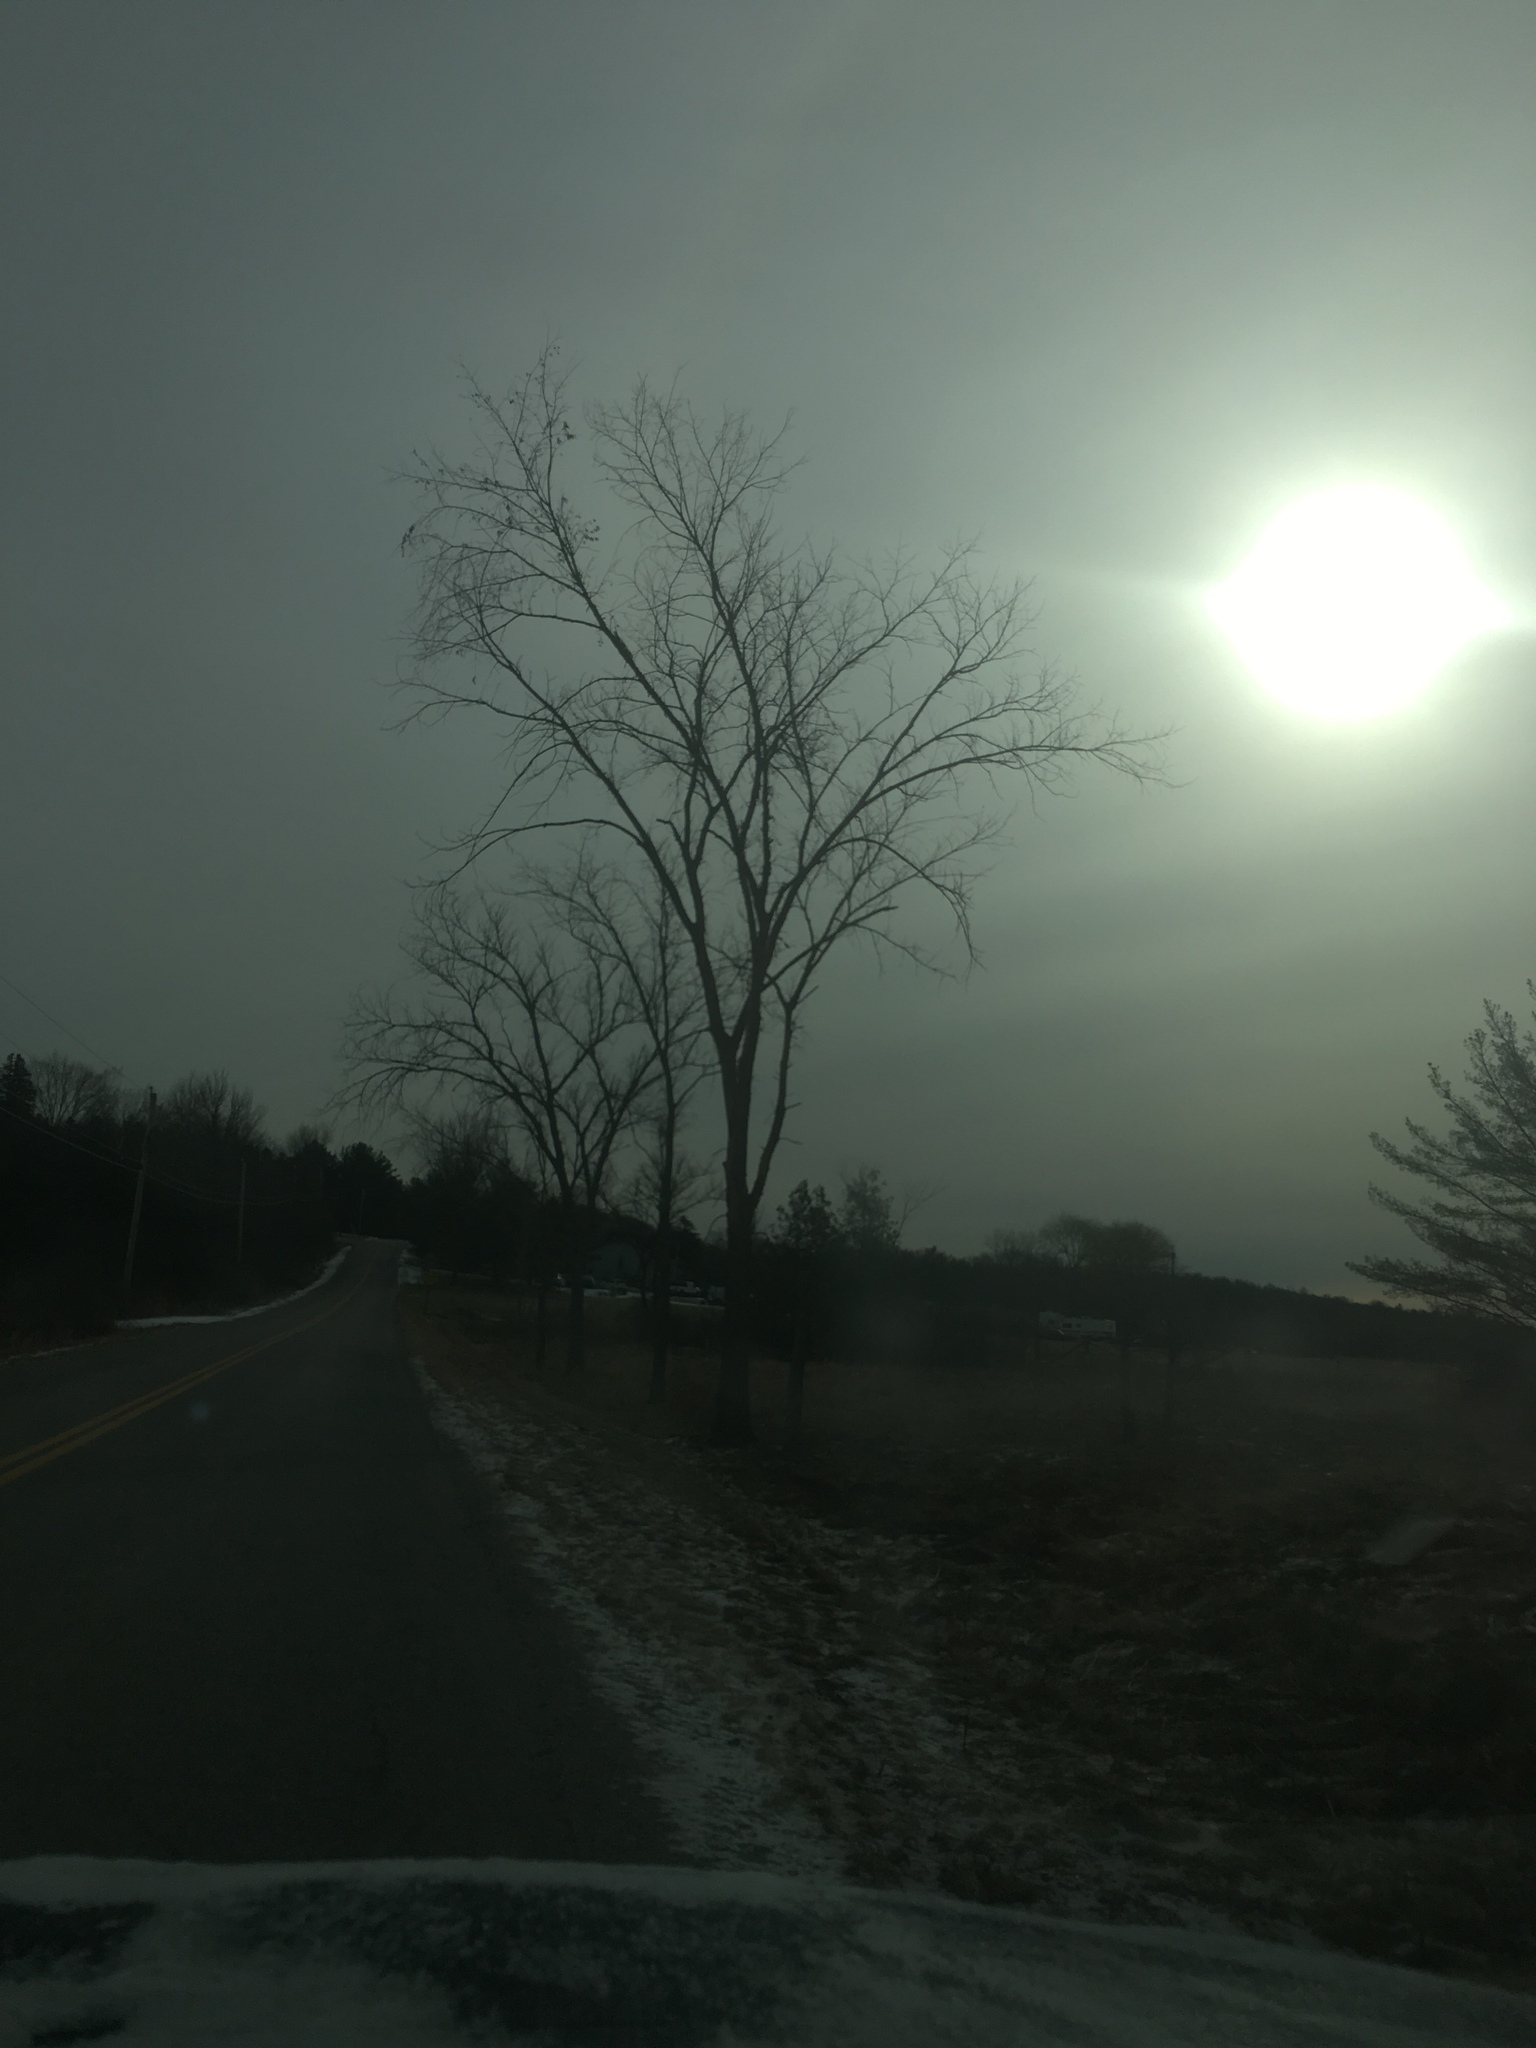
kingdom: Plantae
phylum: Tracheophyta
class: Magnoliopsida
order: Rosales
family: Ulmaceae
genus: Ulmus
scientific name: Ulmus americana
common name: American elm
